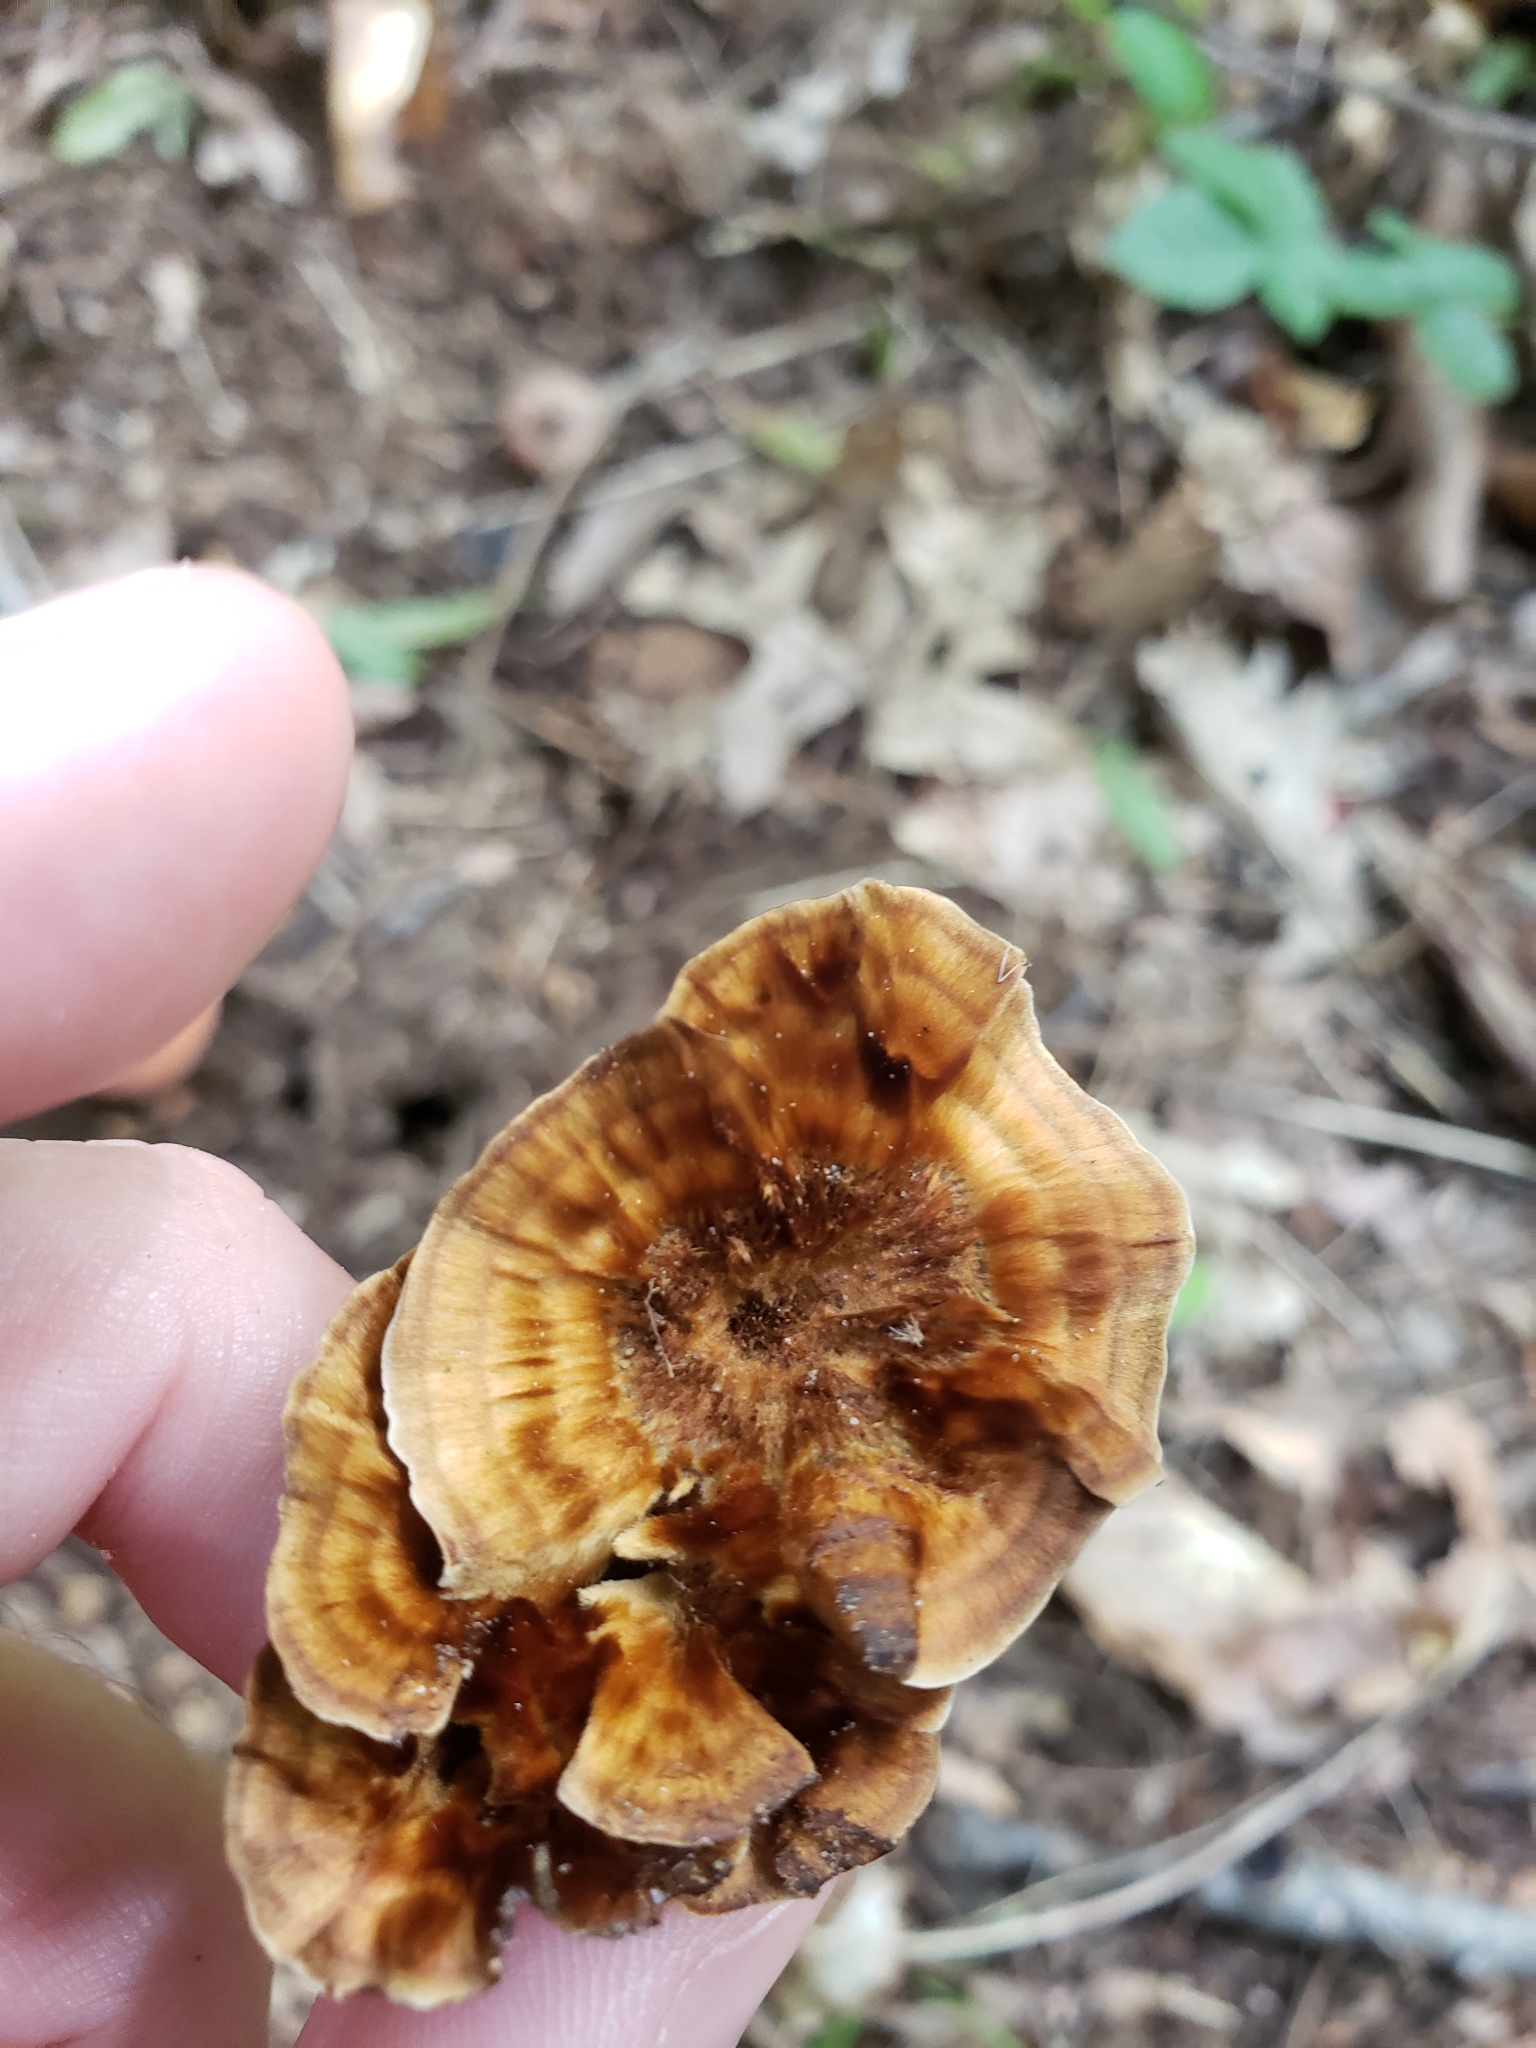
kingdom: Fungi
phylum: Basidiomycota
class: Agaricomycetes
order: Hymenochaetales
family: Hymenochaetaceae
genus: Coltricia
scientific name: Coltricia perennis
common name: Tiger's eye
